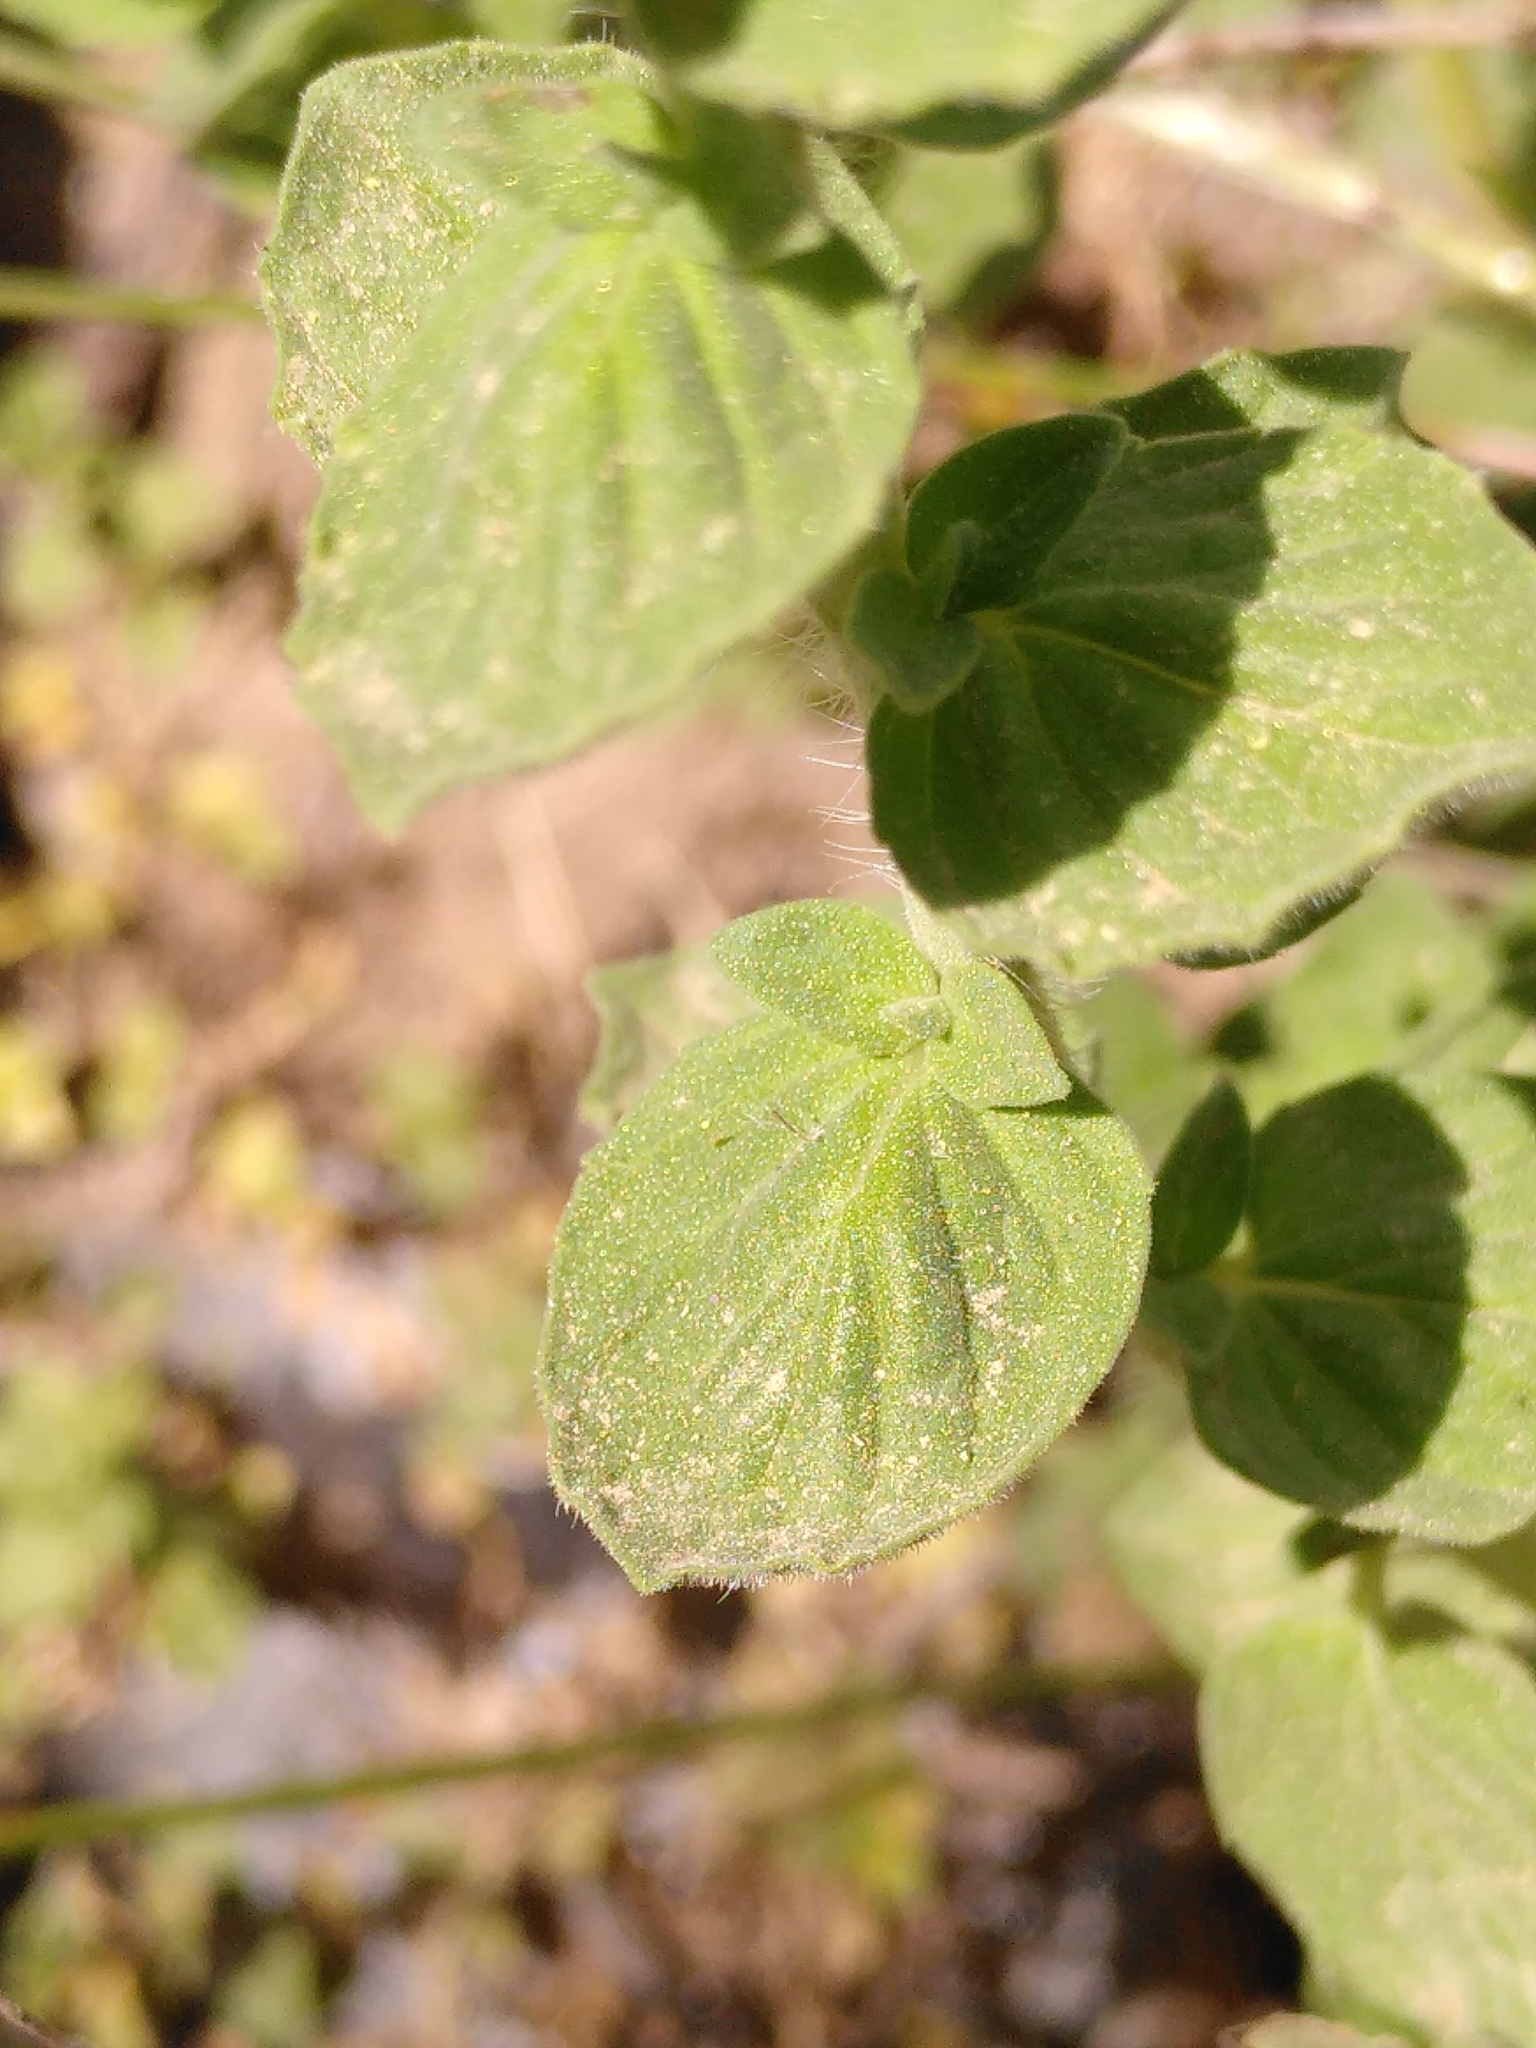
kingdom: Plantae
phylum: Tracheophyta
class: Magnoliopsida
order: Lamiales
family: Lamiaceae
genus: Origanum
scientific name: Origanum onites
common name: Turkish oregano
